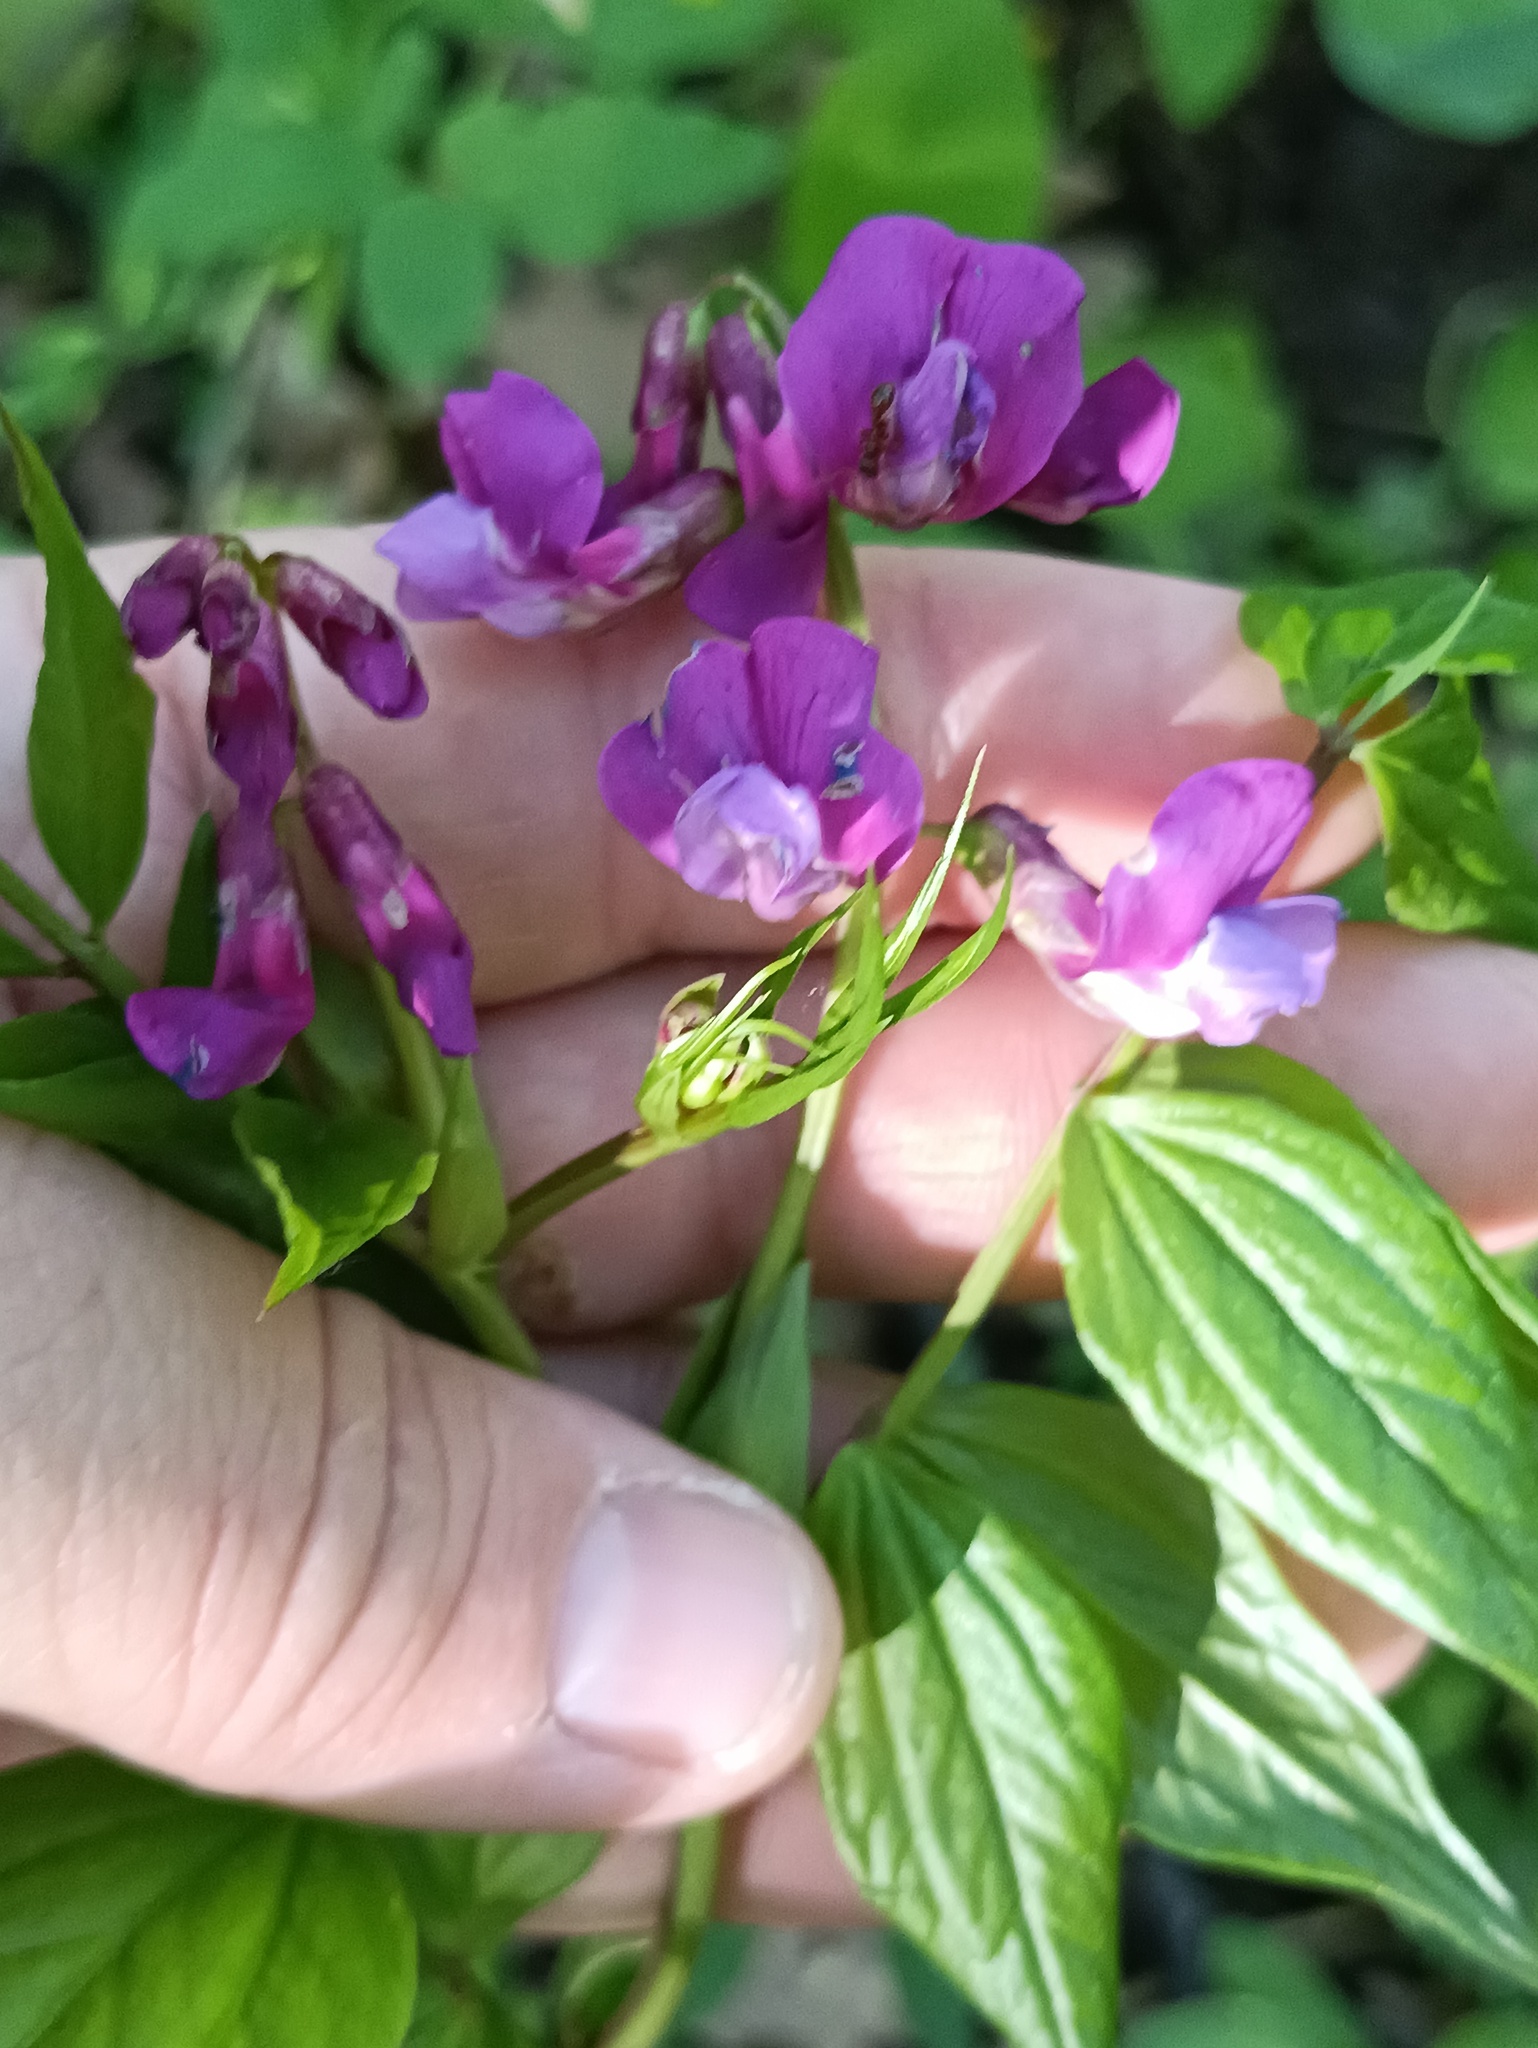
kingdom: Plantae
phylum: Tracheophyta
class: Magnoliopsida
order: Fabales
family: Fabaceae
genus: Lathyrus
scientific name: Lathyrus vernus
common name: Spring pea
